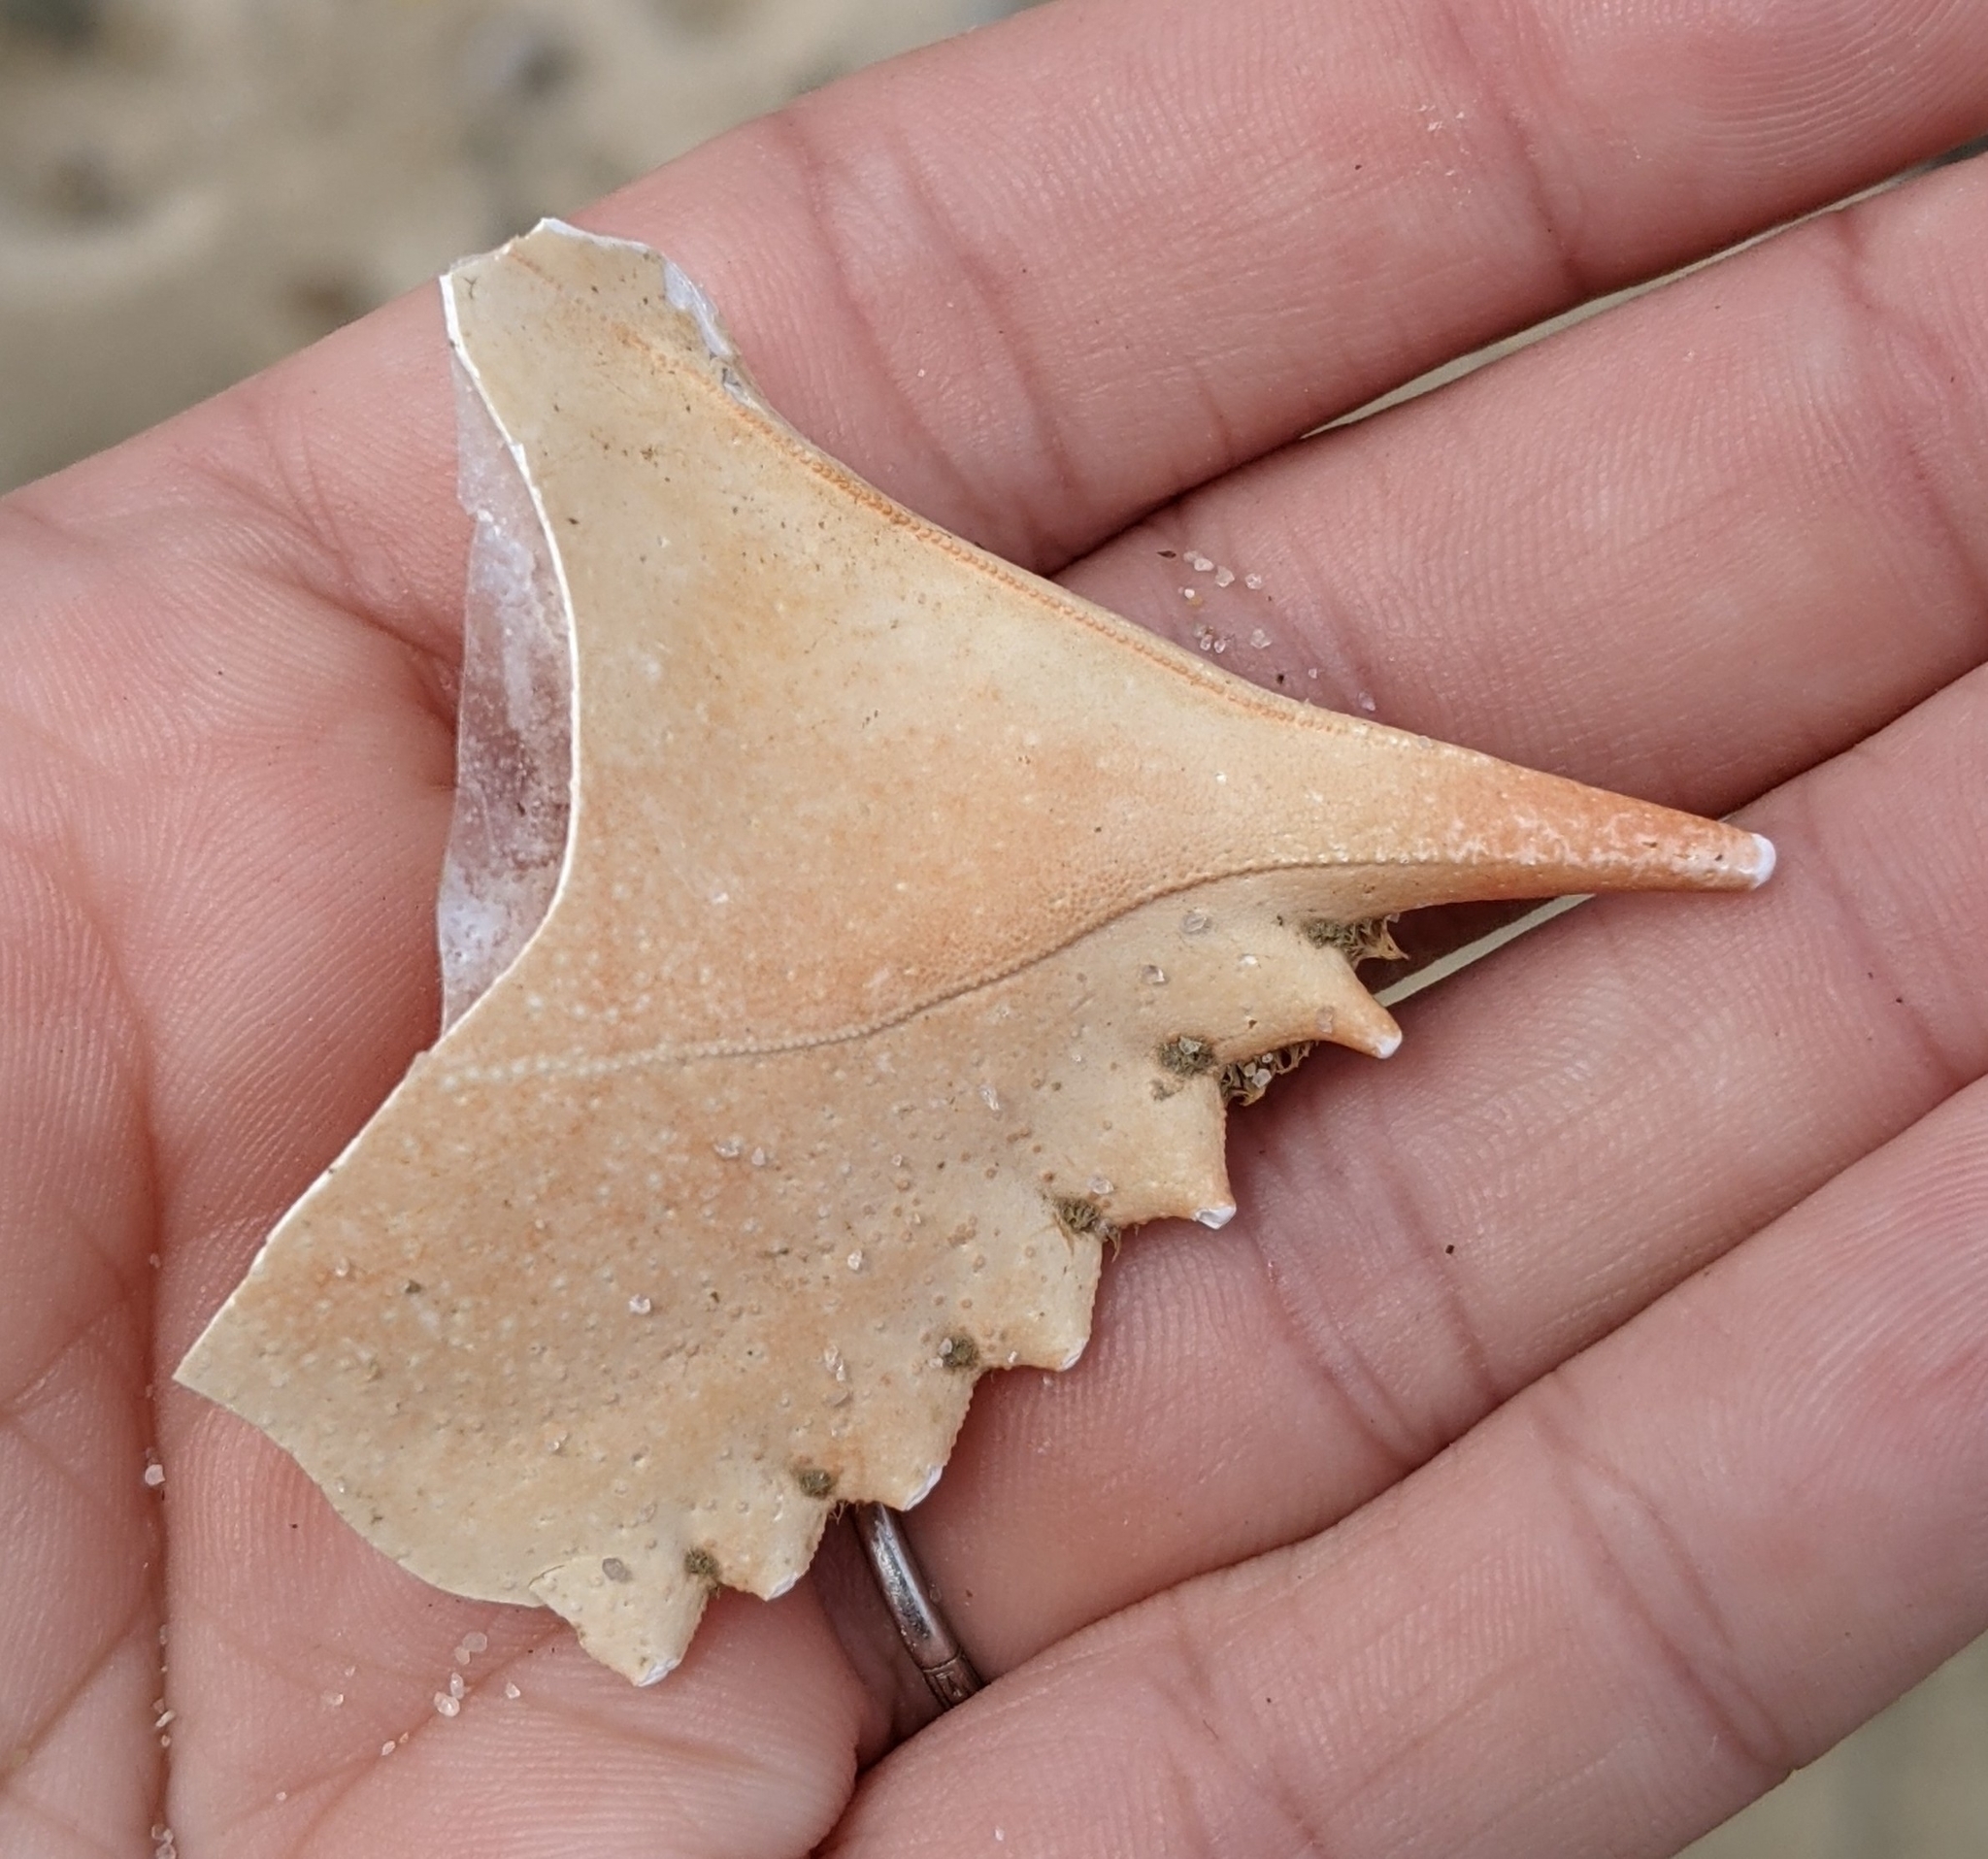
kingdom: Animalia
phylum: Arthropoda
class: Malacostraca
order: Decapoda
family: Portunidae
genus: Callinectes
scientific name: Callinectes sapidus
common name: Blue crab
